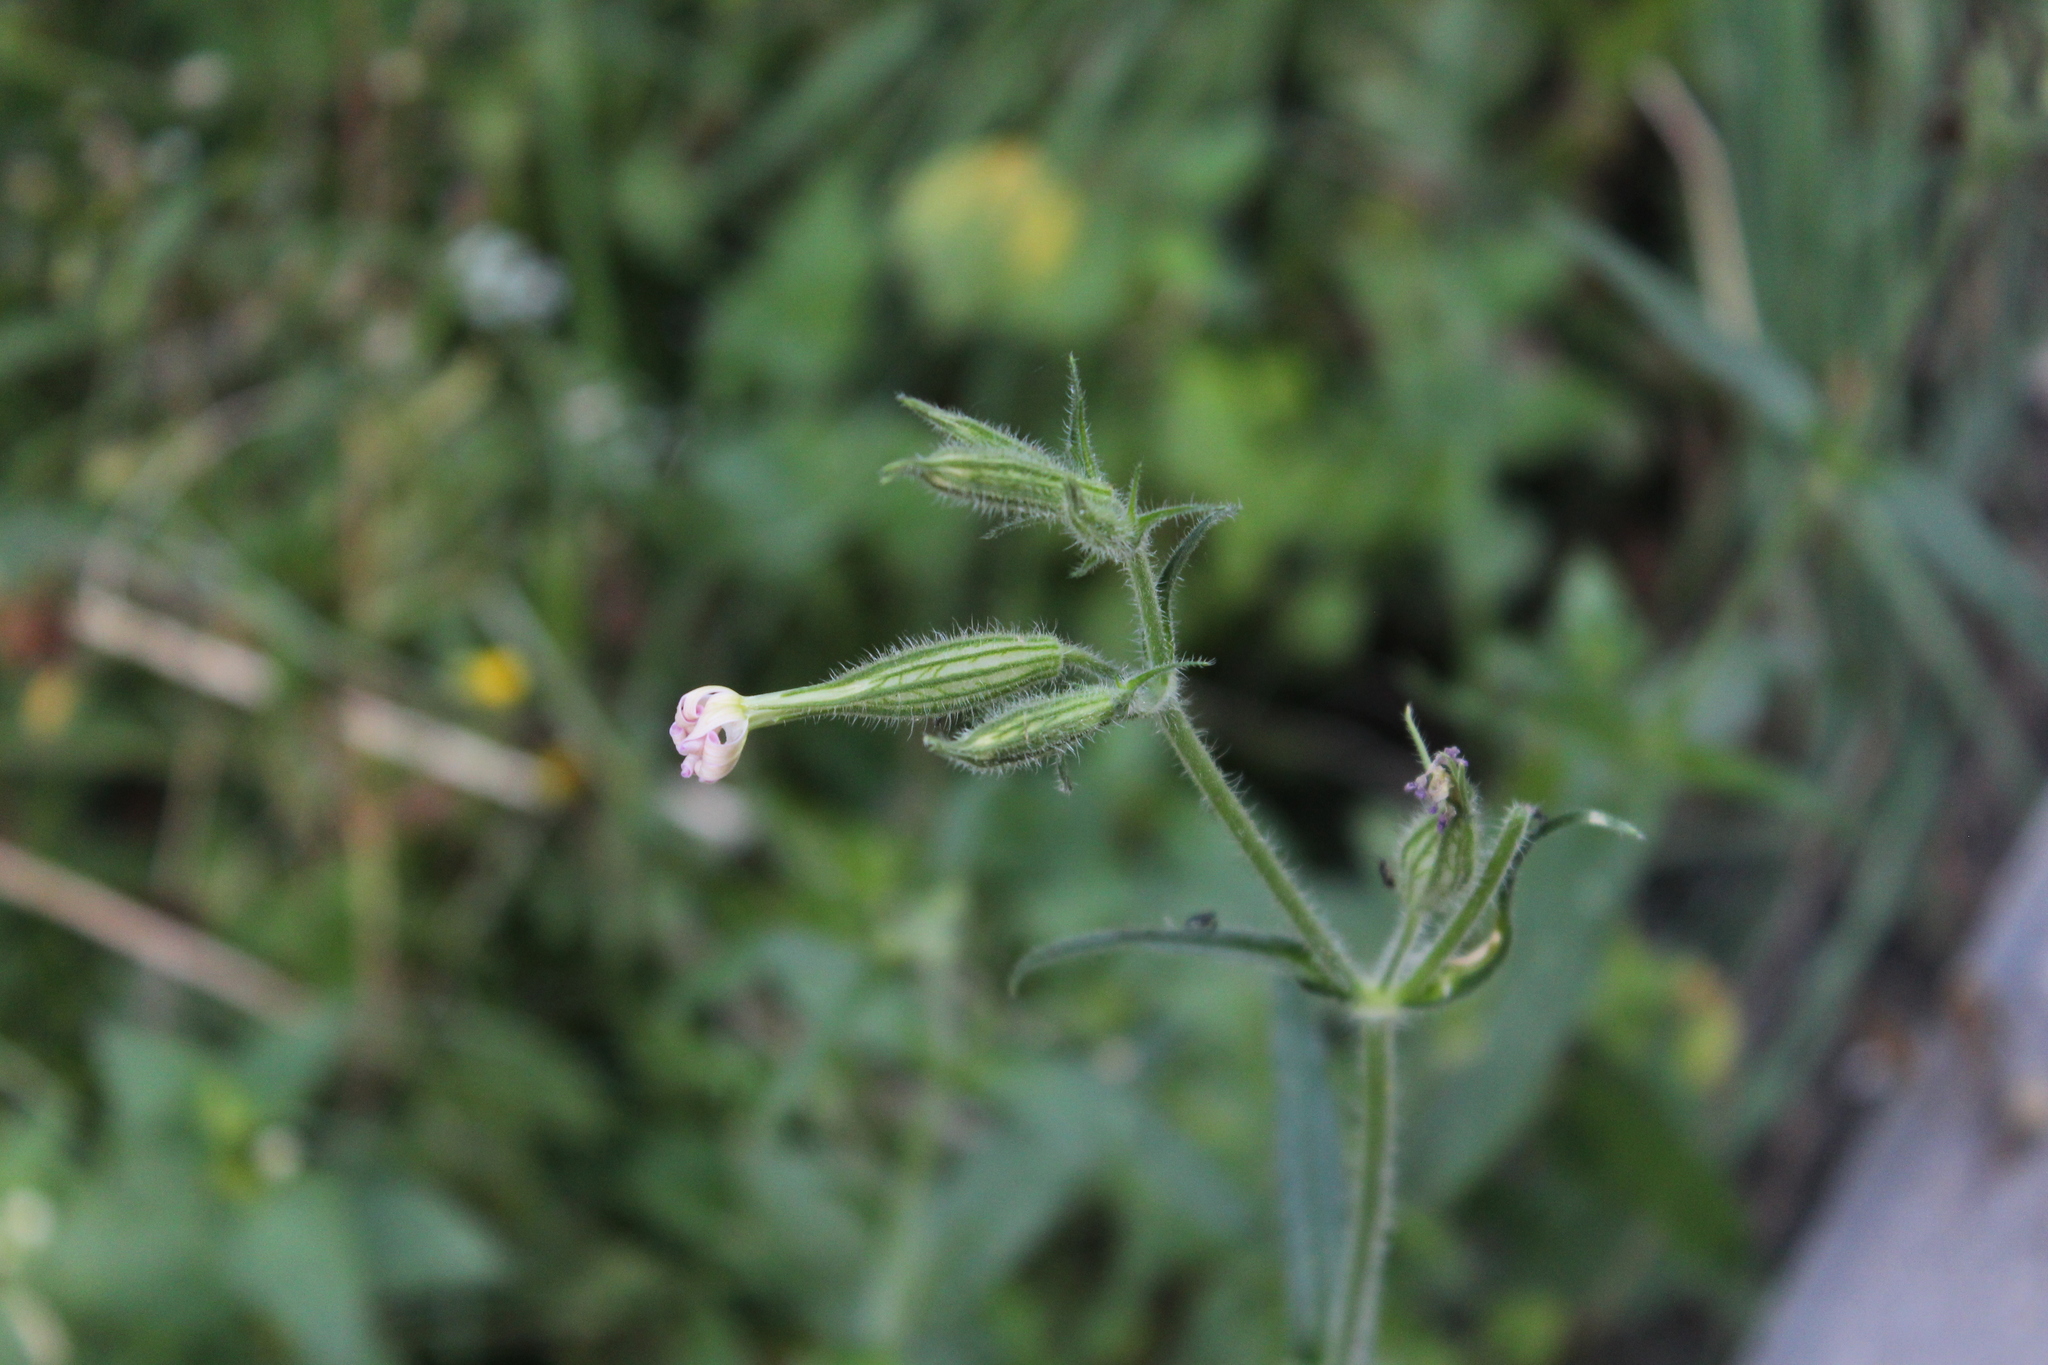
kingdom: Plantae
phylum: Tracheophyta
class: Magnoliopsida
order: Caryophyllales
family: Caryophyllaceae
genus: Silene
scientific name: Silene noctiflora
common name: Night-flowering catchfly
